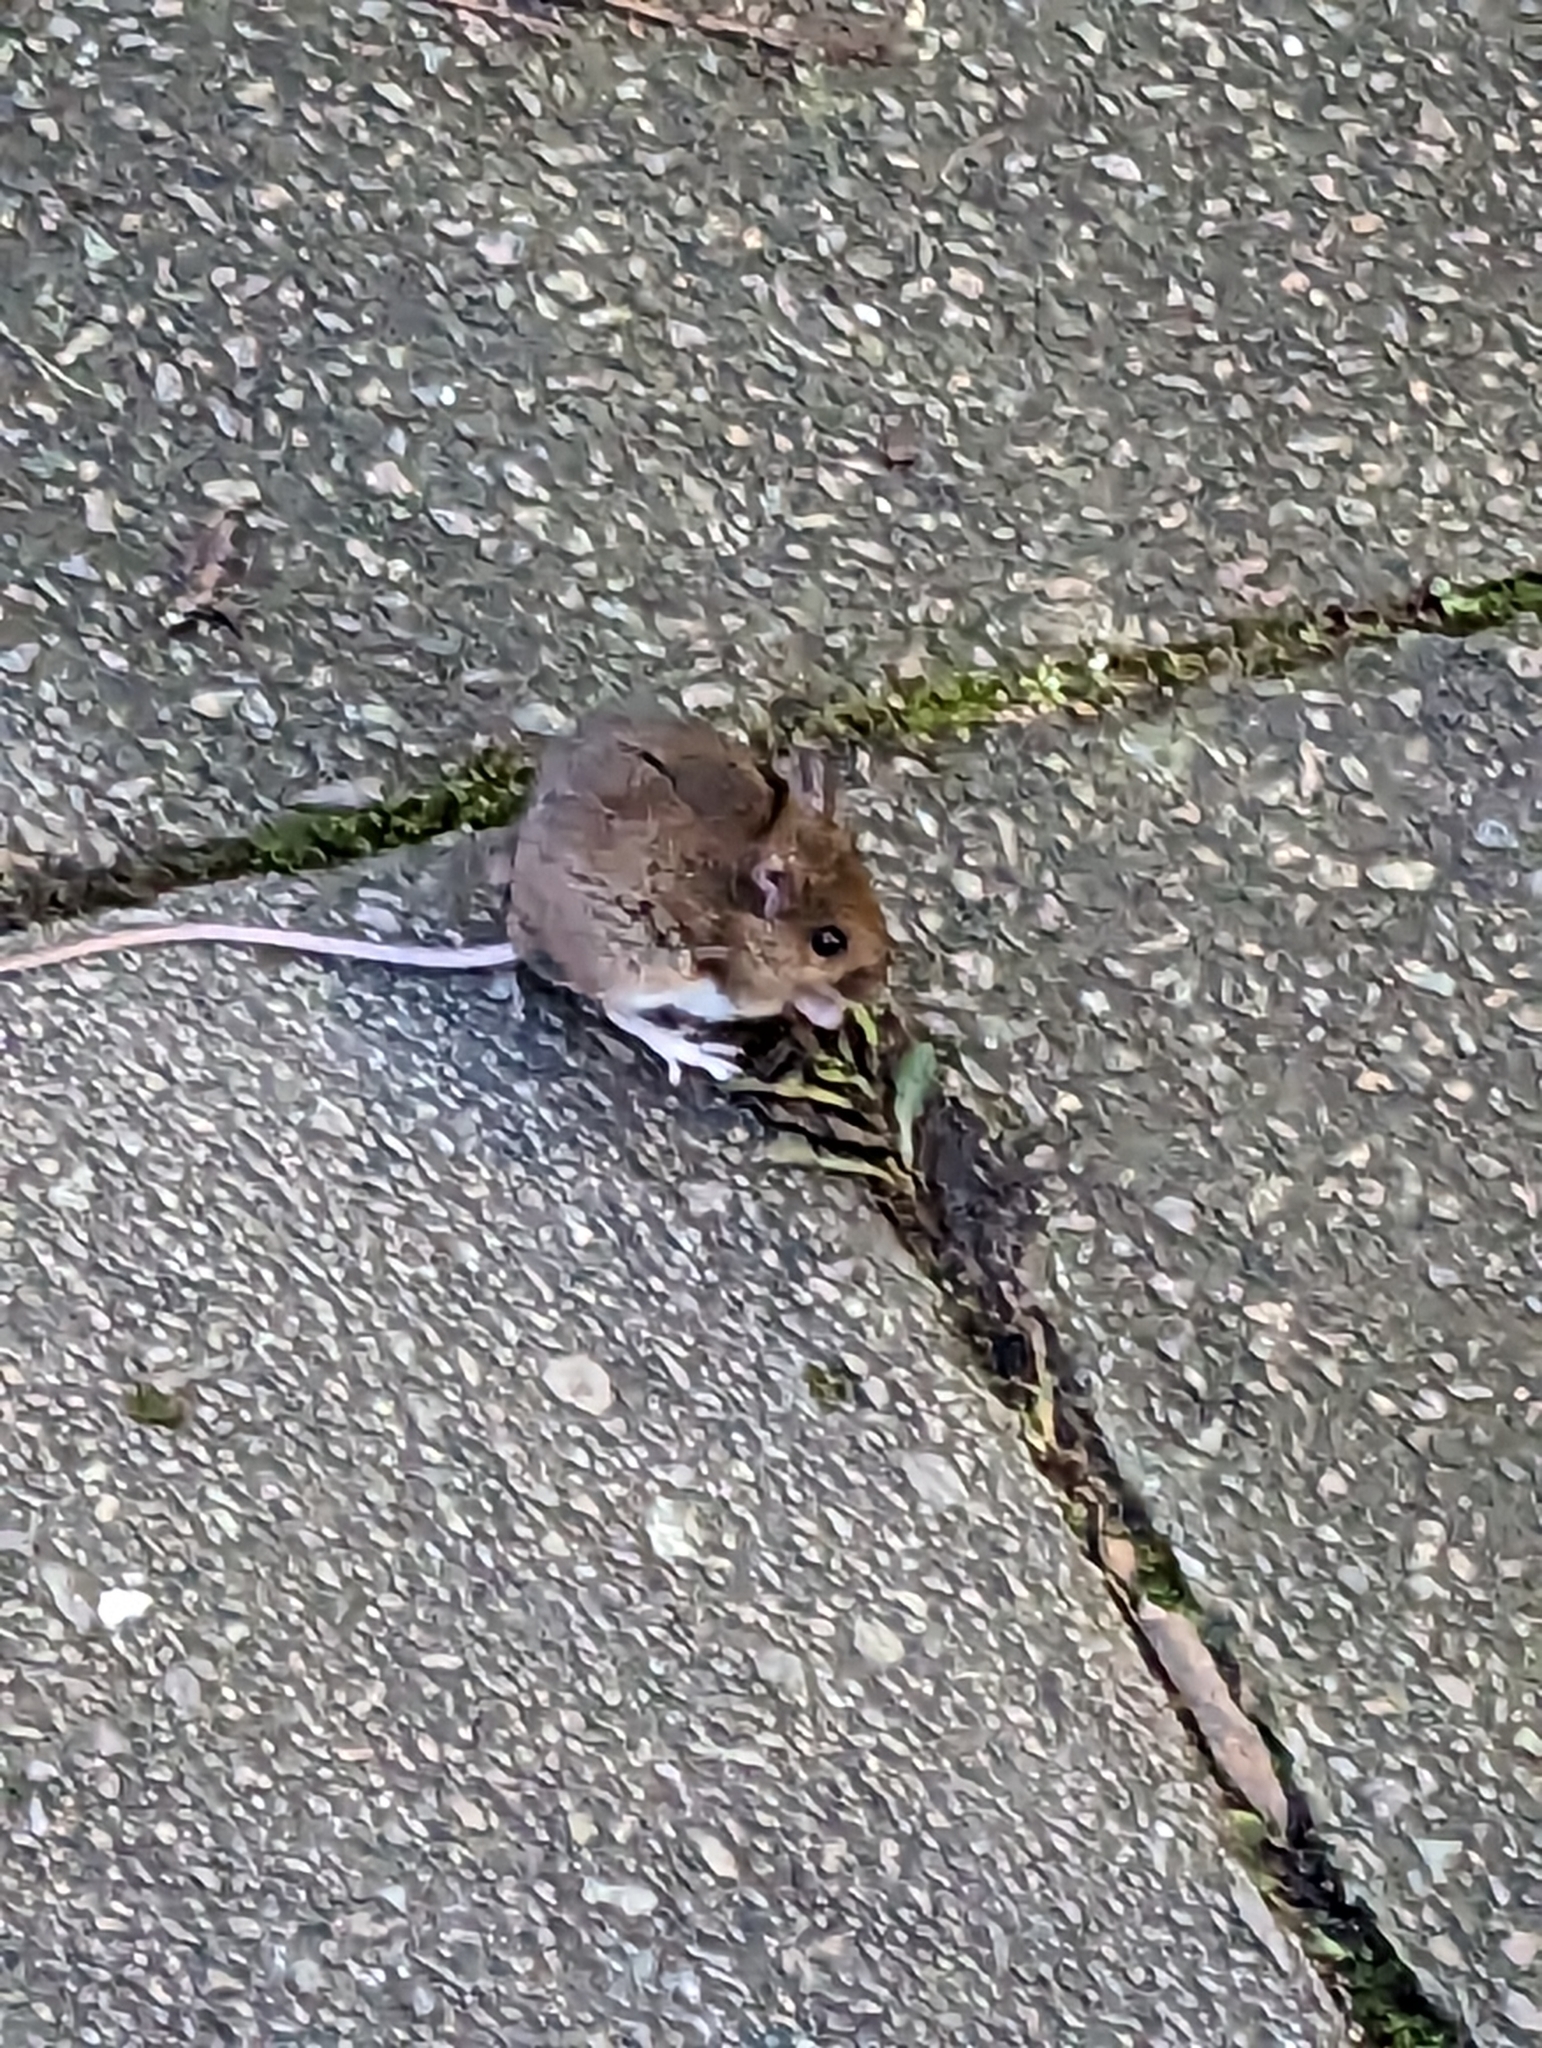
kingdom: Animalia
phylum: Chordata
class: Mammalia
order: Rodentia
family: Muridae
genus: Apodemus
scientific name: Apodemus sylvaticus
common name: Wood mouse
